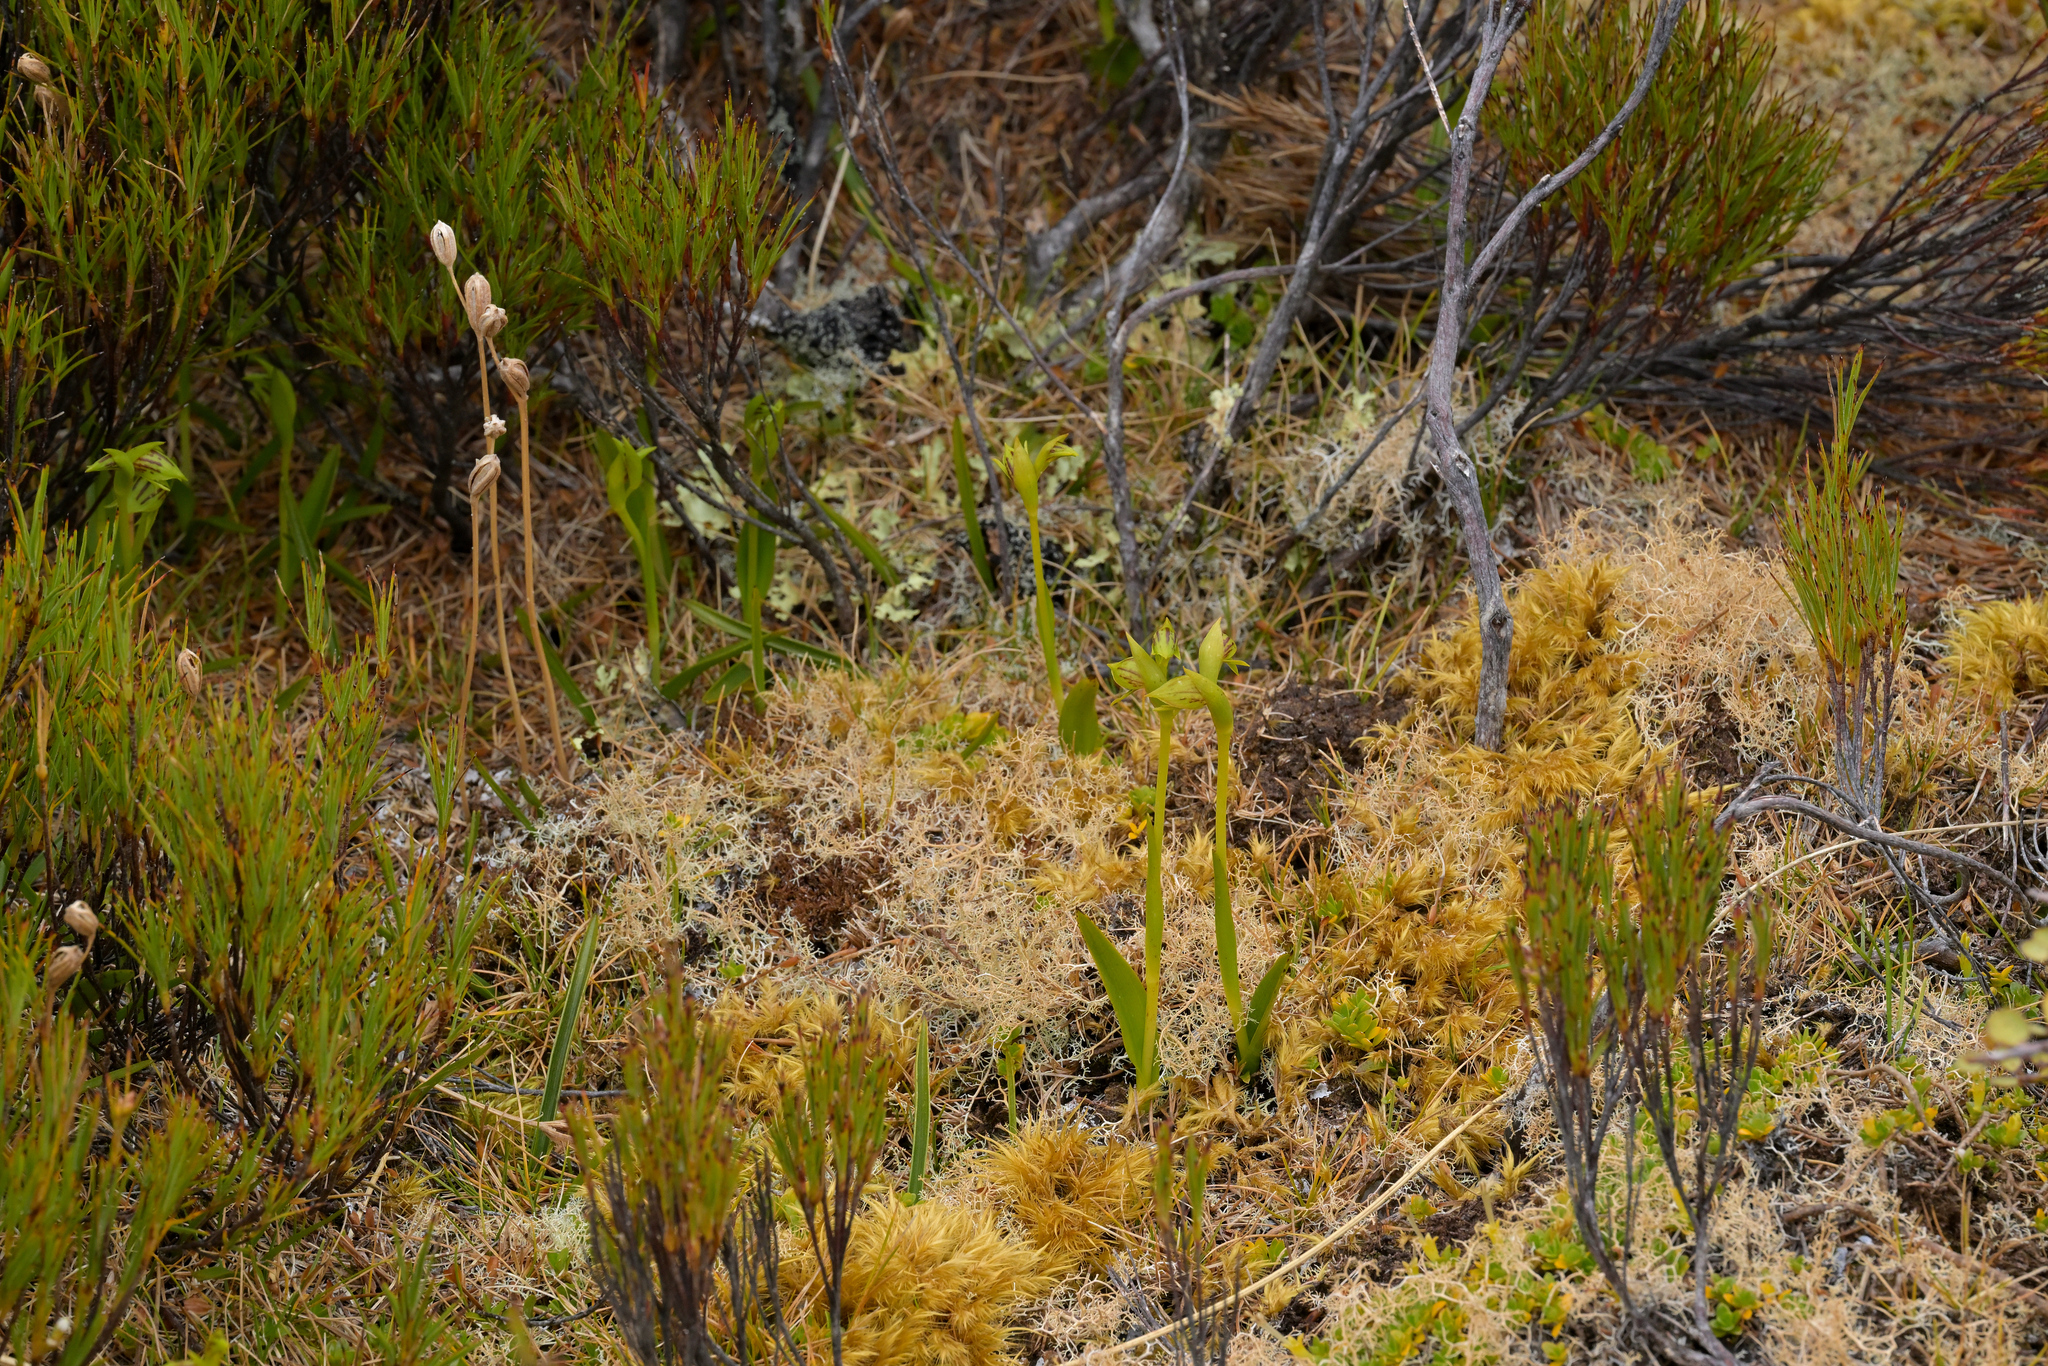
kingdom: Plantae
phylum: Tracheophyta
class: Liliopsida
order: Asparagales
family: Orchidaceae
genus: Waireia
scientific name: Waireia stenopetala
